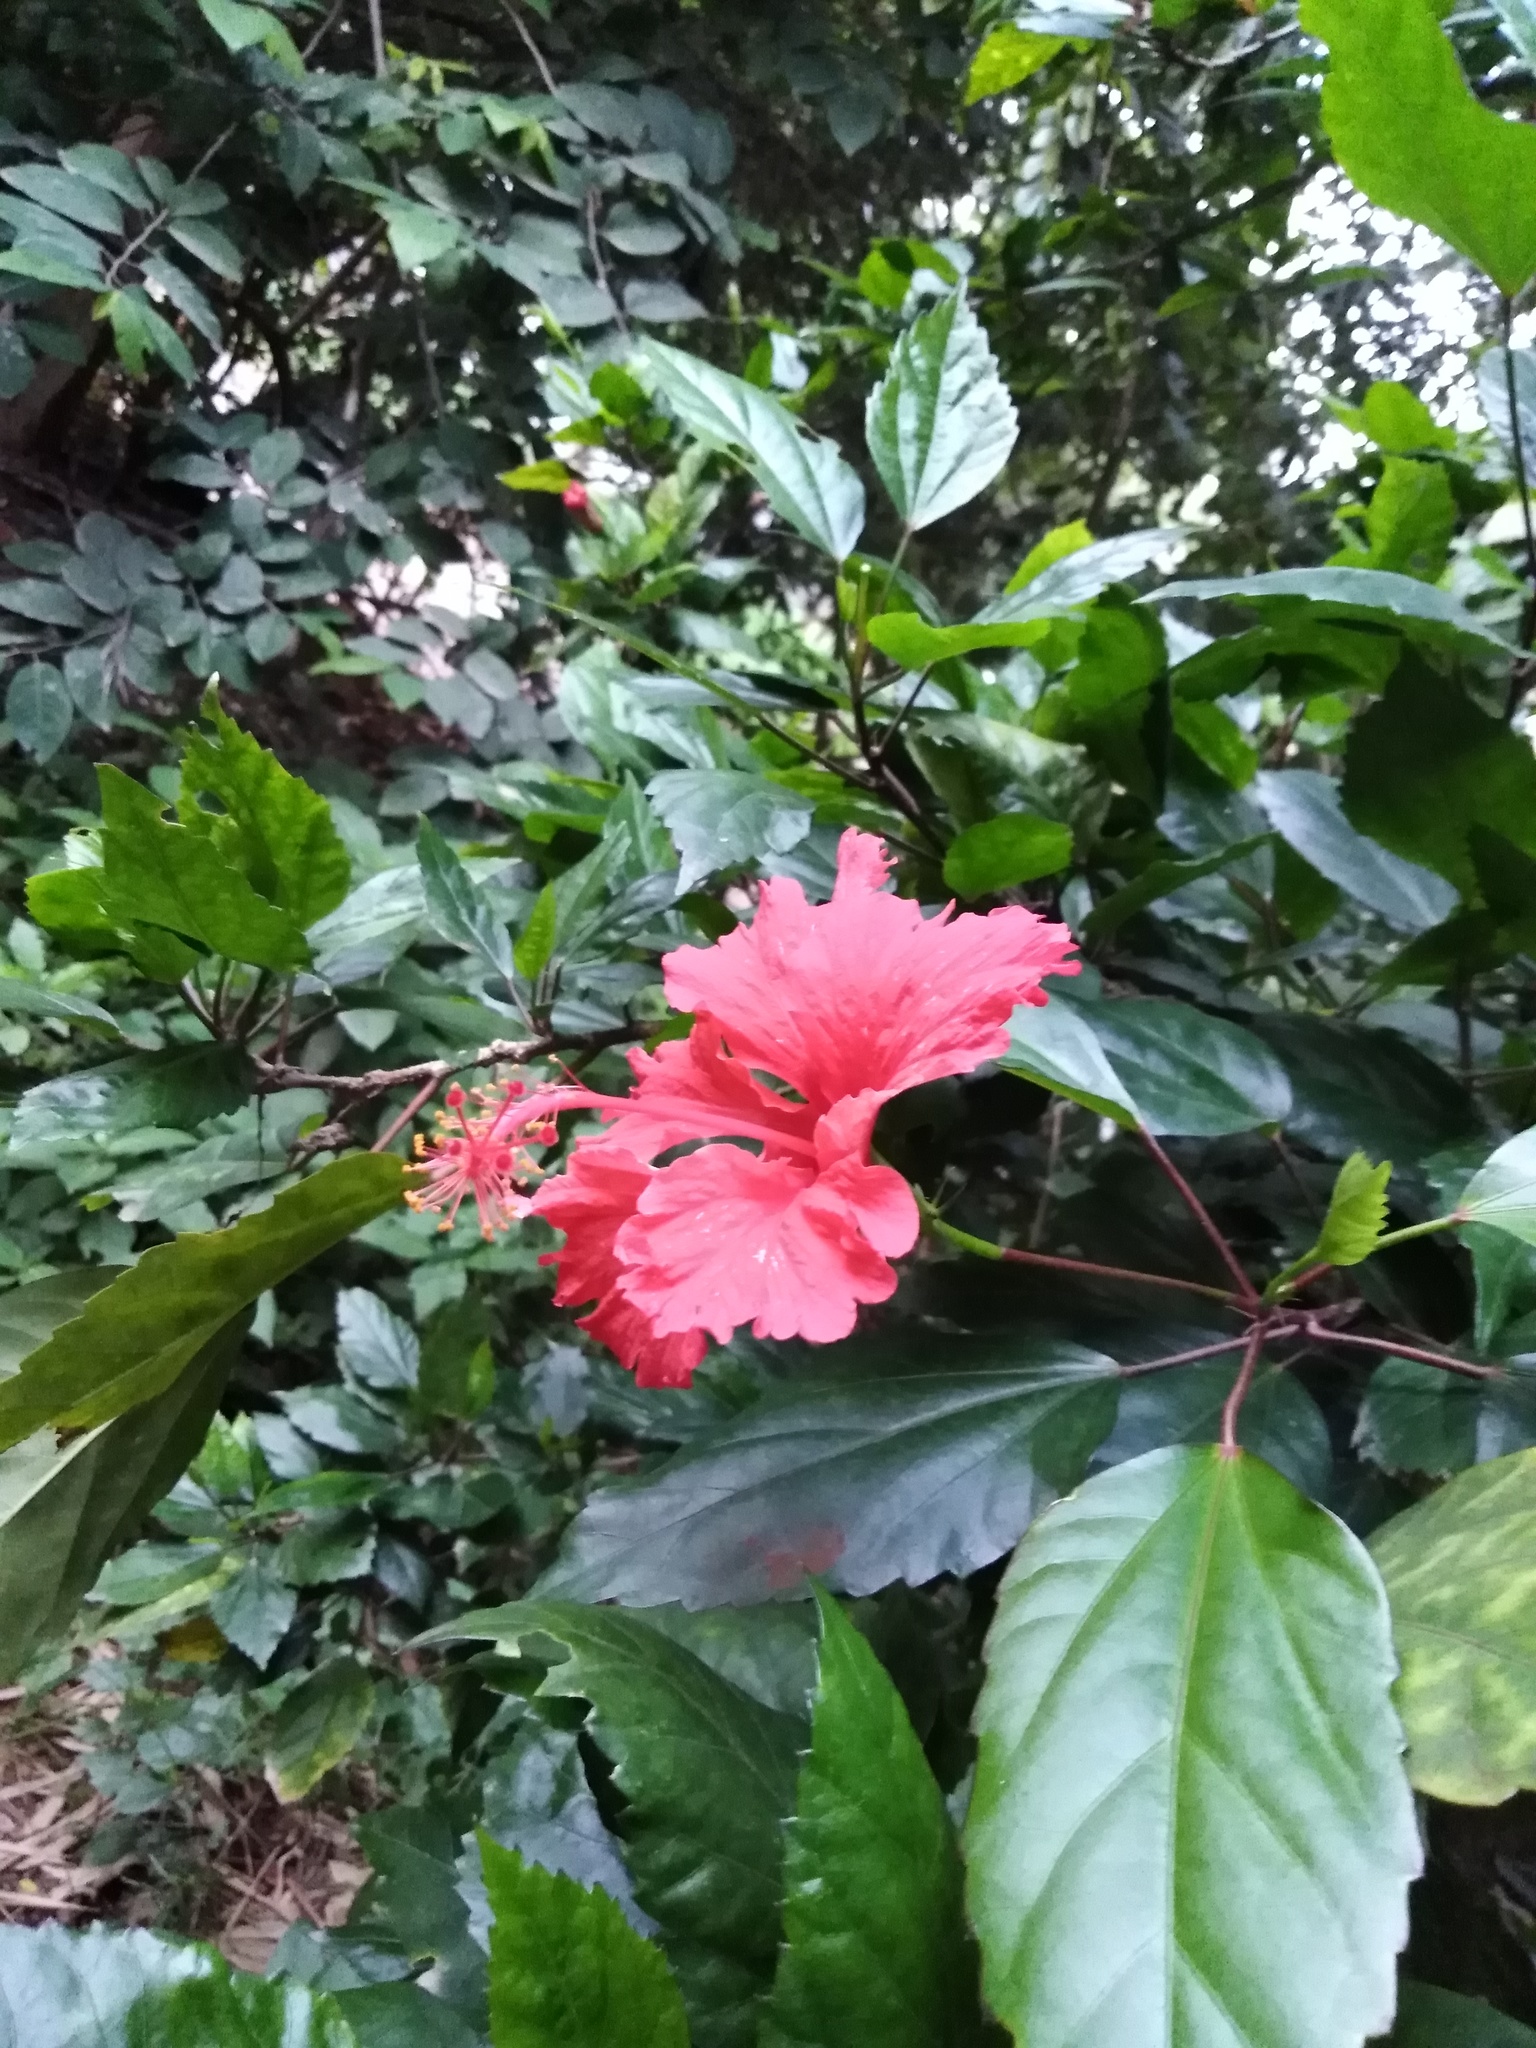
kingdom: Plantae
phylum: Tracheophyta
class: Magnoliopsida
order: Malvales
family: Malvaceae
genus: Hibiscus
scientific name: Hibiscus rosa-sinensis
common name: Hibiscus
